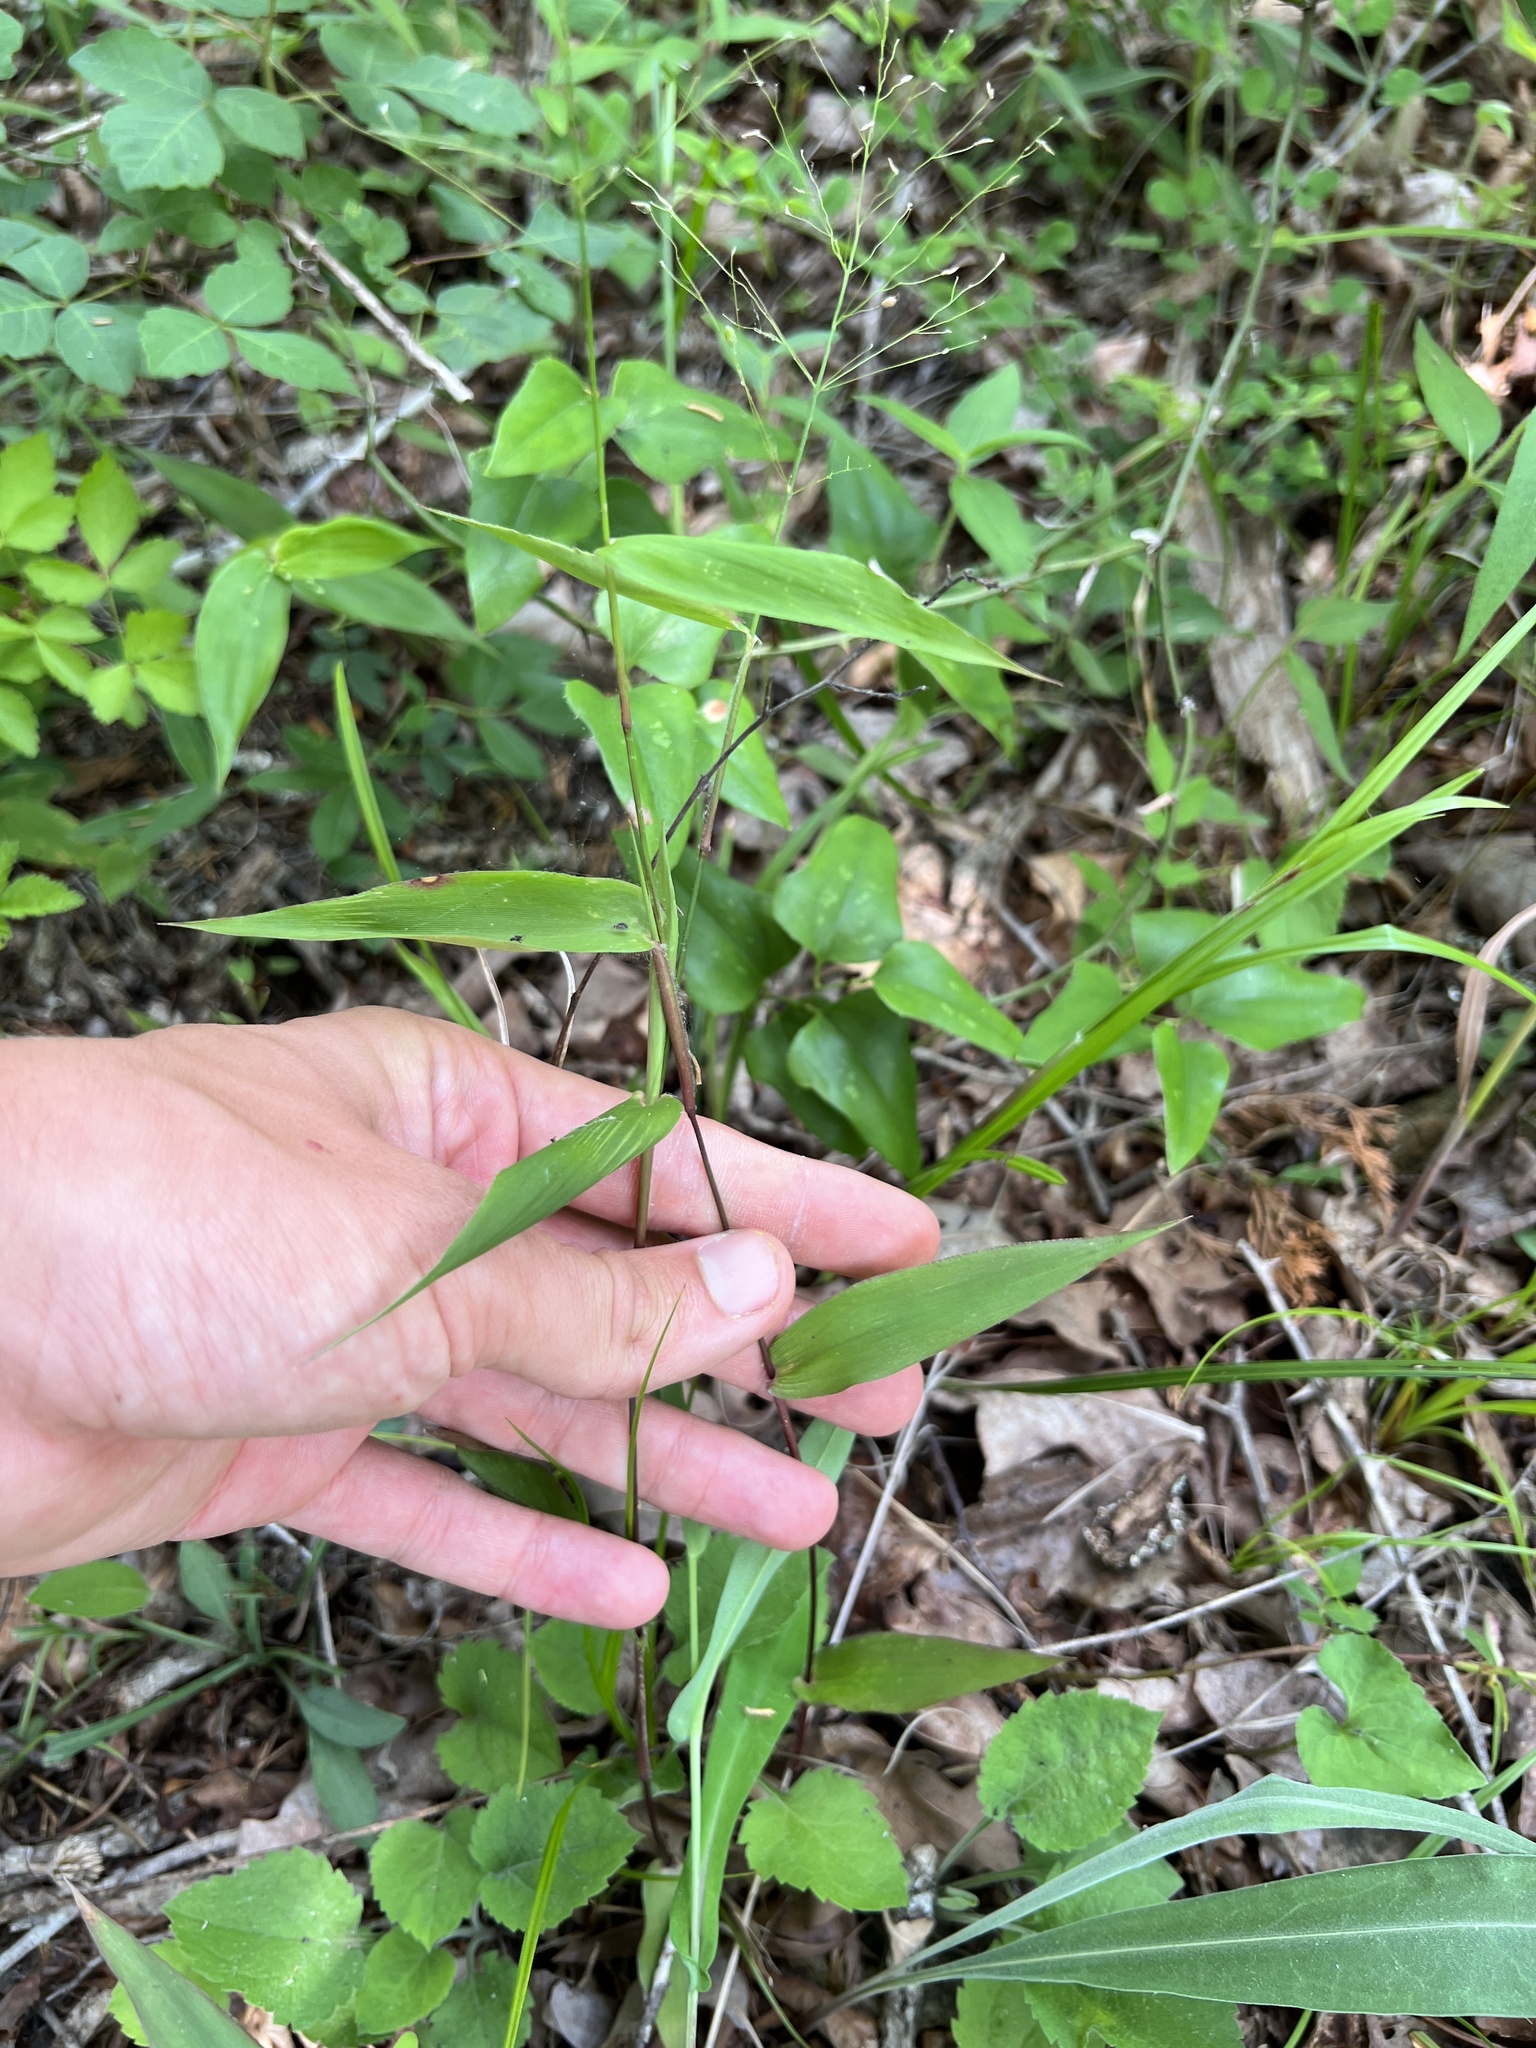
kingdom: Plantae
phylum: Tracheophyta
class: Liliopsida
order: Poales
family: Poaceae
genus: Dichanthelium
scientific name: Dichanthelium commutatum
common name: Variable witchgrass
